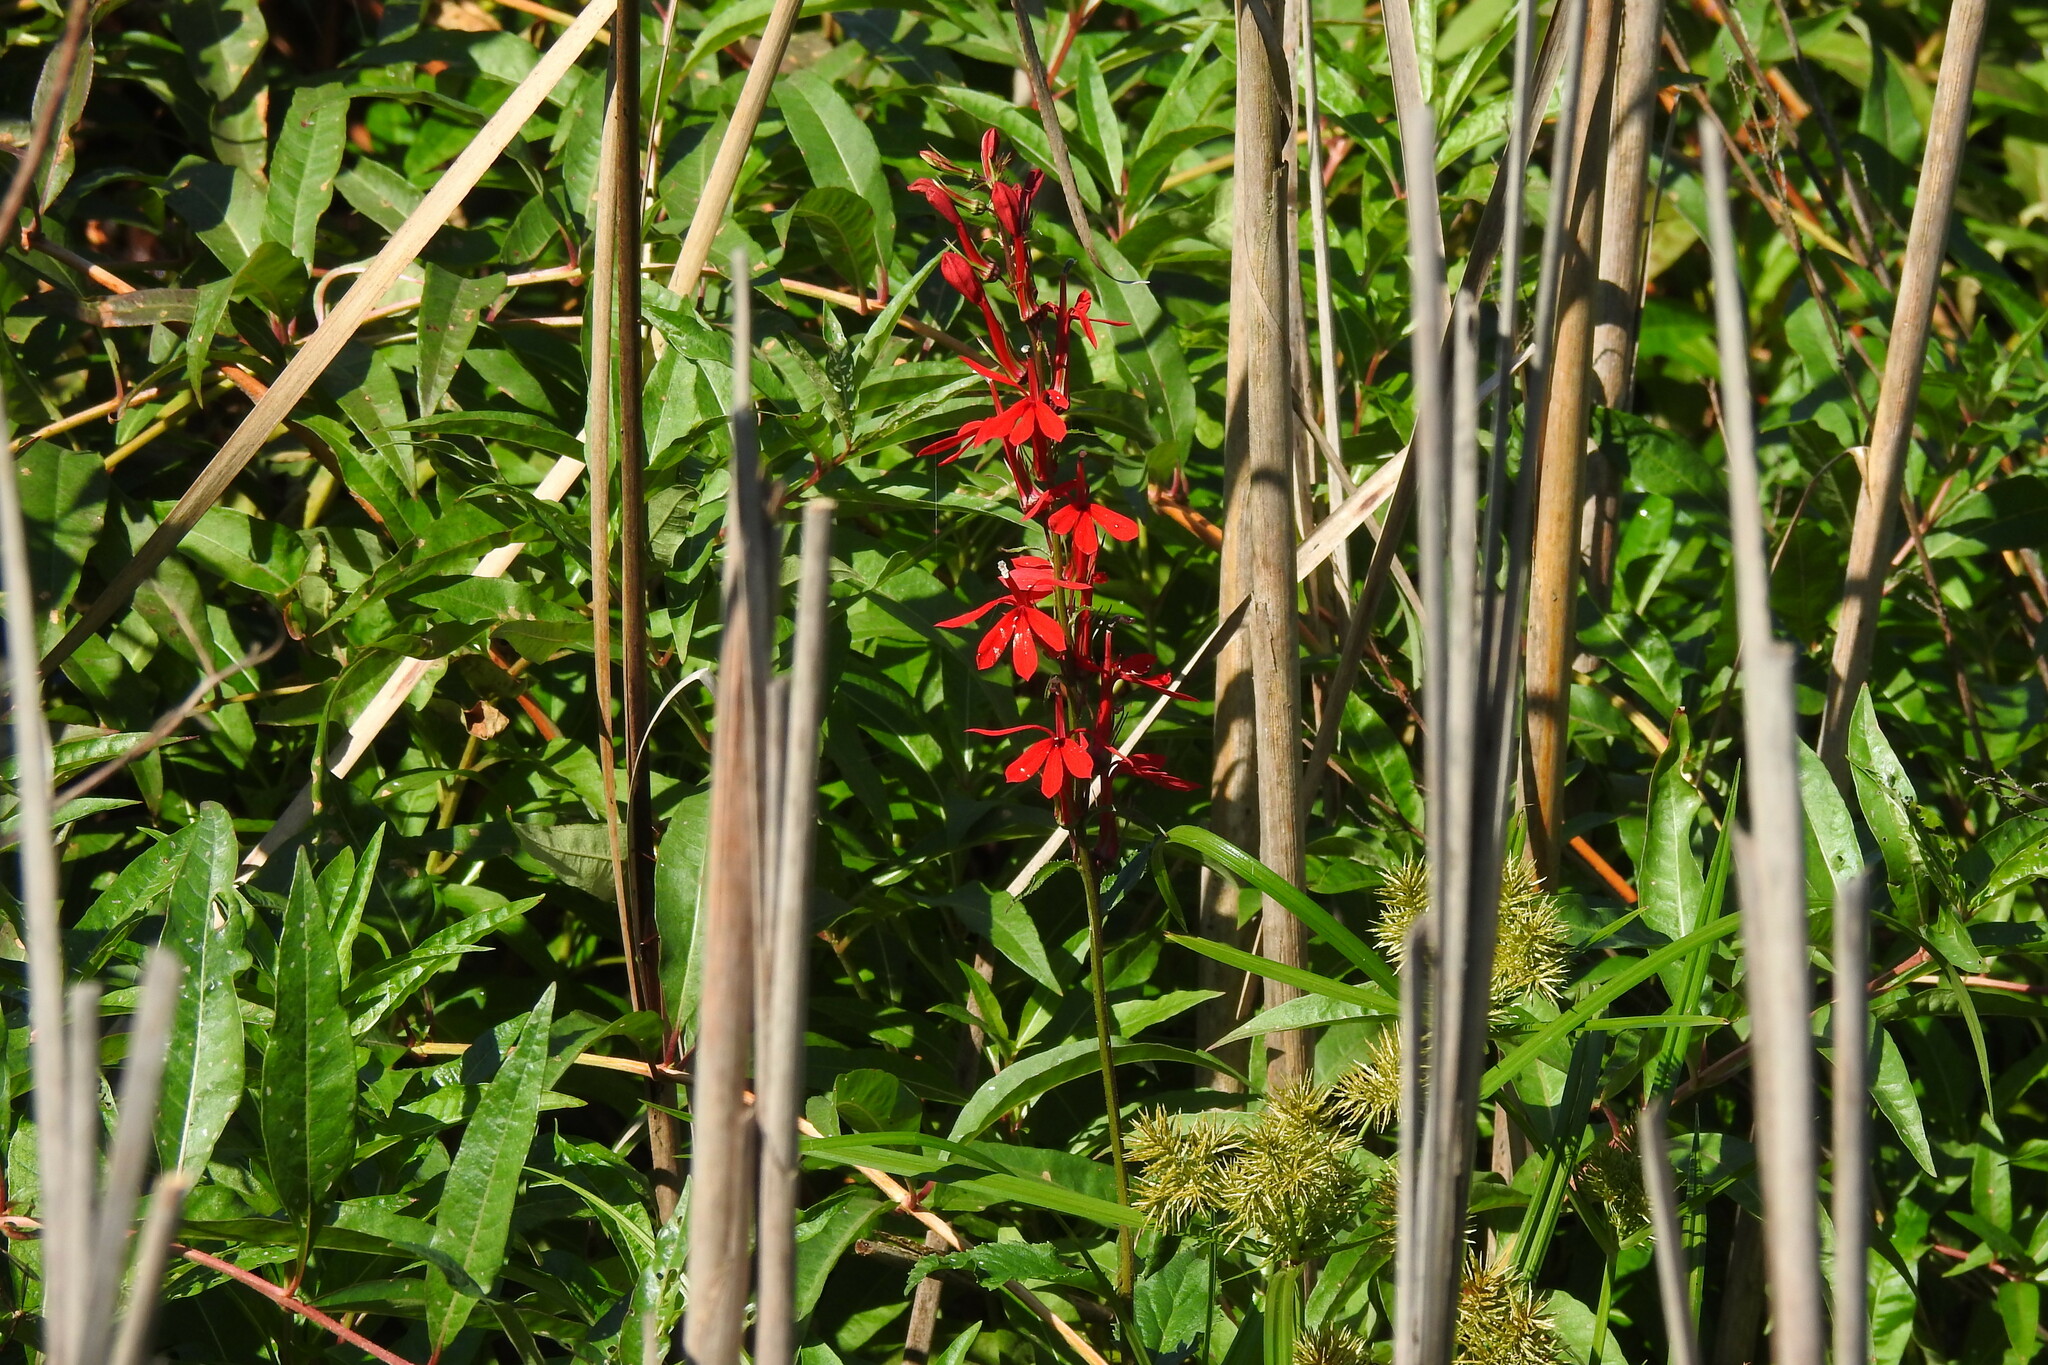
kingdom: Plantae
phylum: Tracheophyta
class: Magnoliopsida
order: Asterales
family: Campanulaceae
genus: Lobelia
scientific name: Lobelia cardinalis
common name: Cardinal flower
